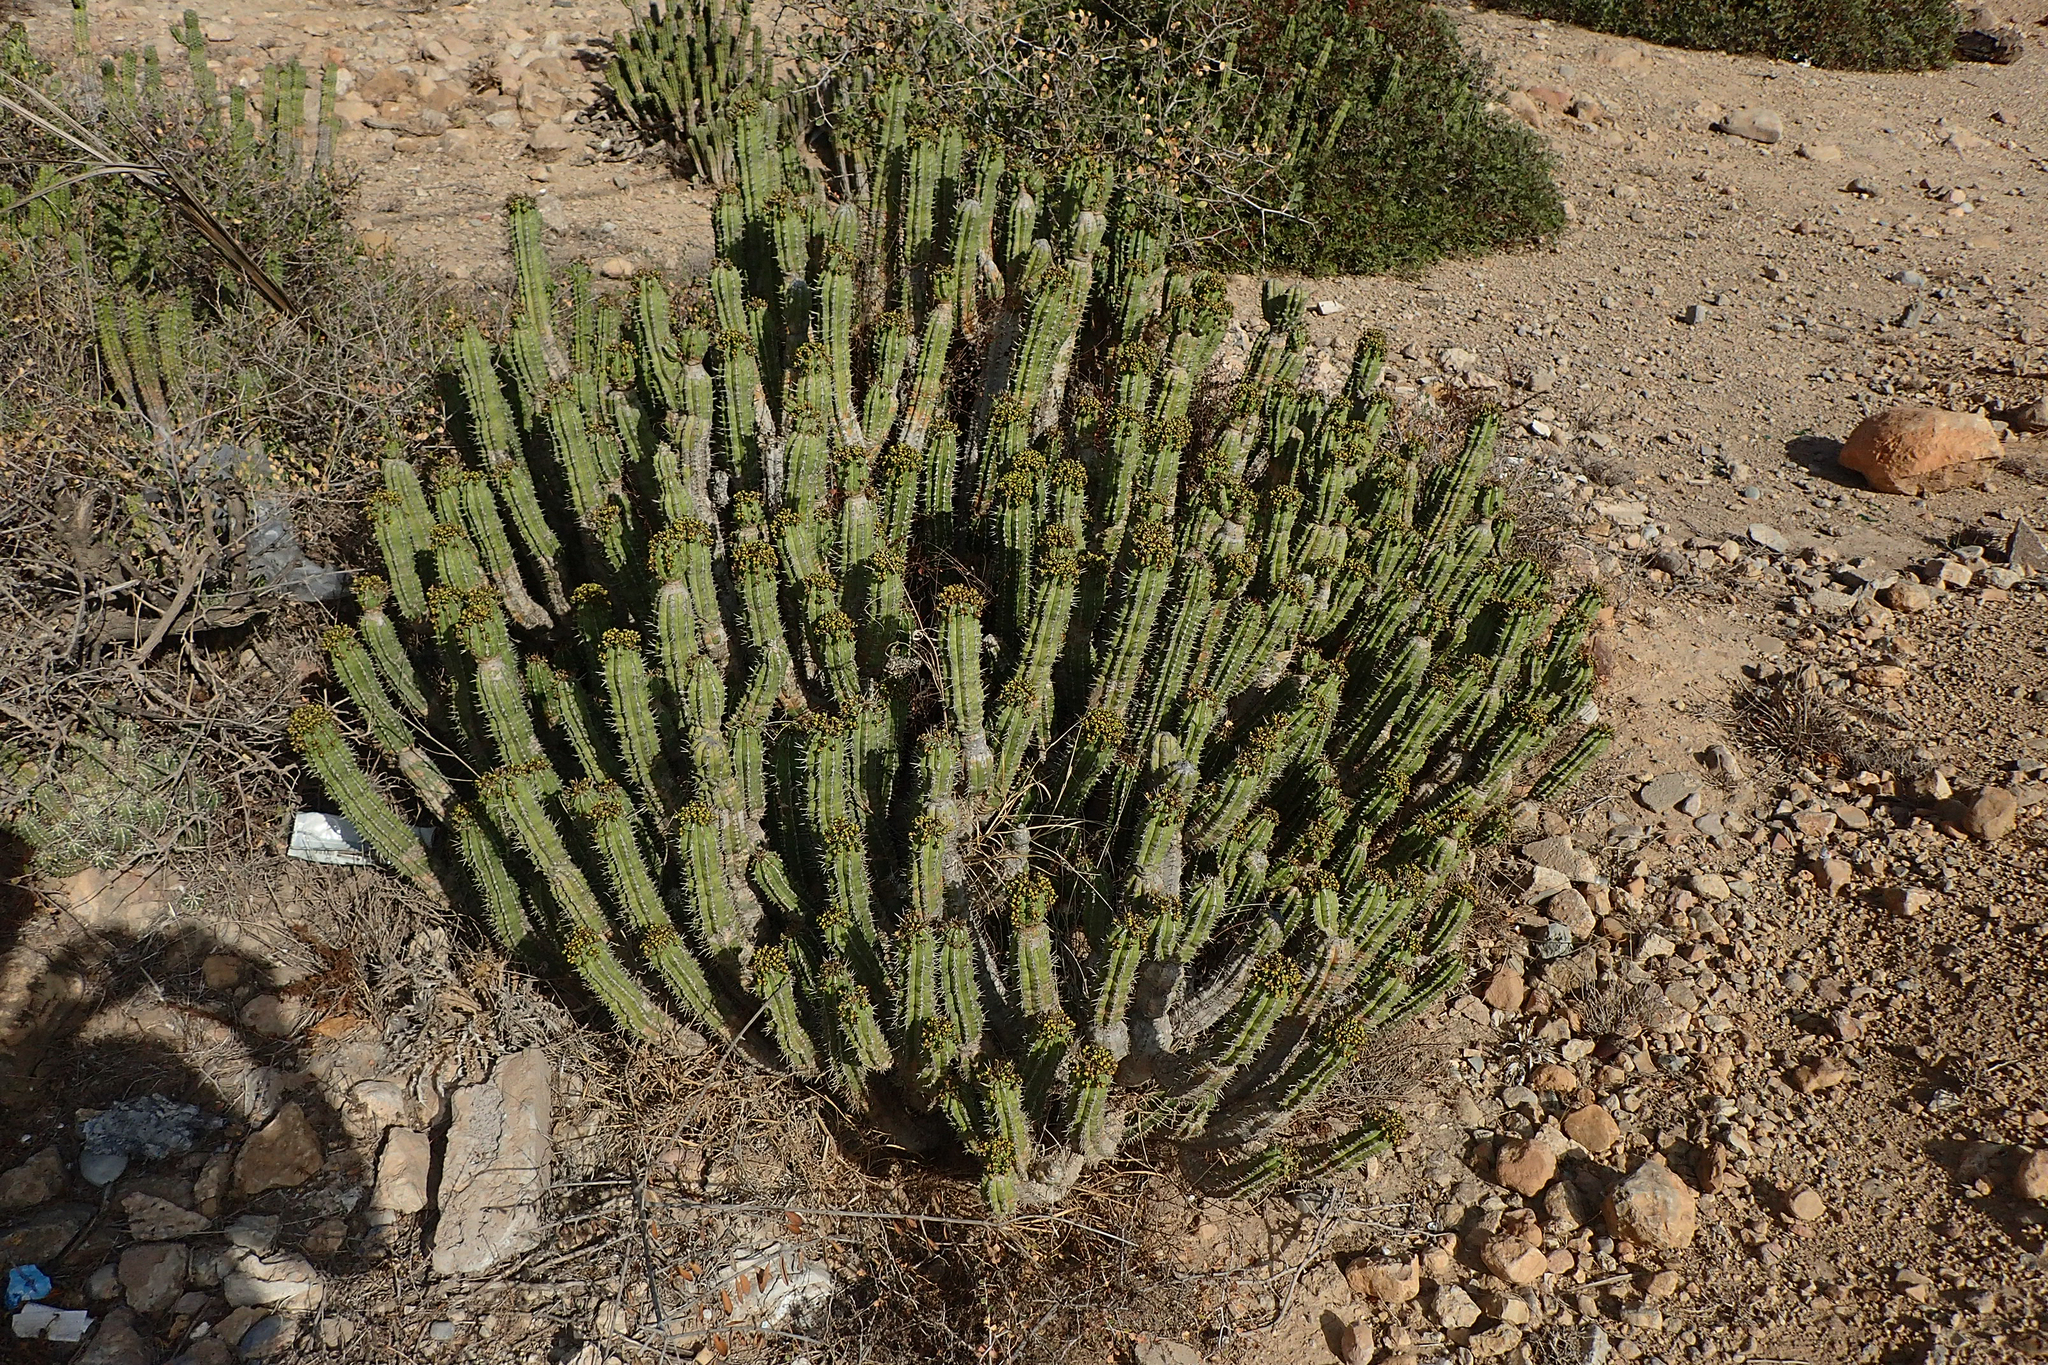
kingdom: Plantae
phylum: Tracheophyta
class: Magnoliopsida
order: Malpighiales
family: Euphorbiaceae
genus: Euphorbia
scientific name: Euphorbia officinarum
